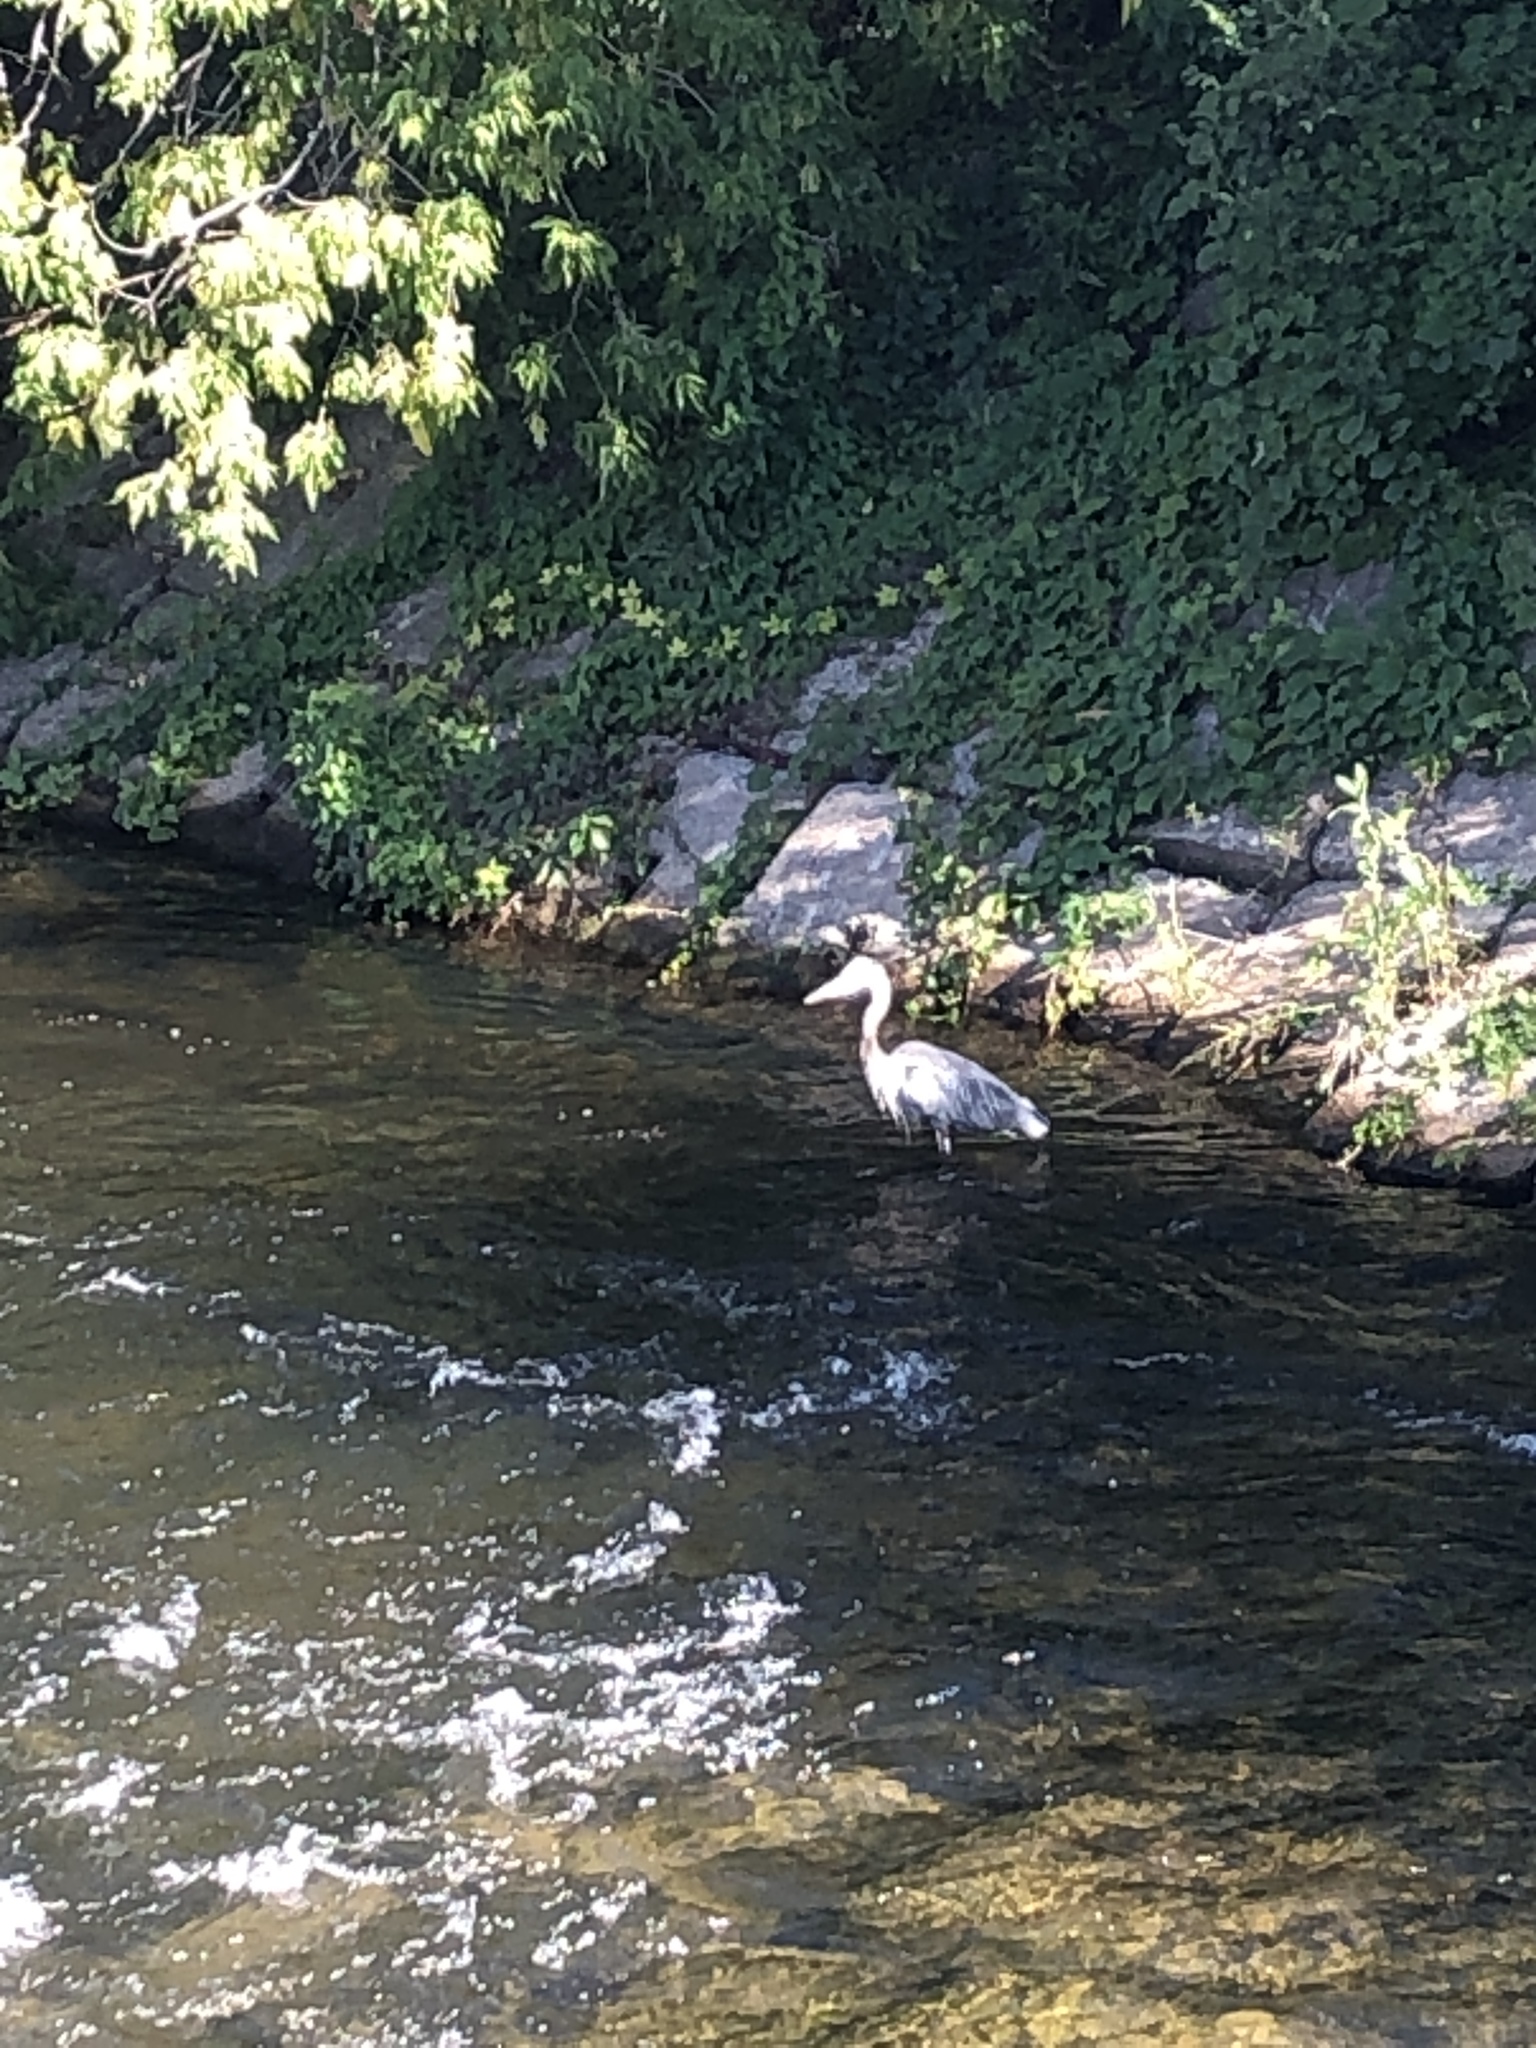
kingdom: Animalia
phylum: Chordata
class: Aves
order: Pelecaniformes
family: Ardeidae
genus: Ardea
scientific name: Ardea herodias
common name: Great blue heron
